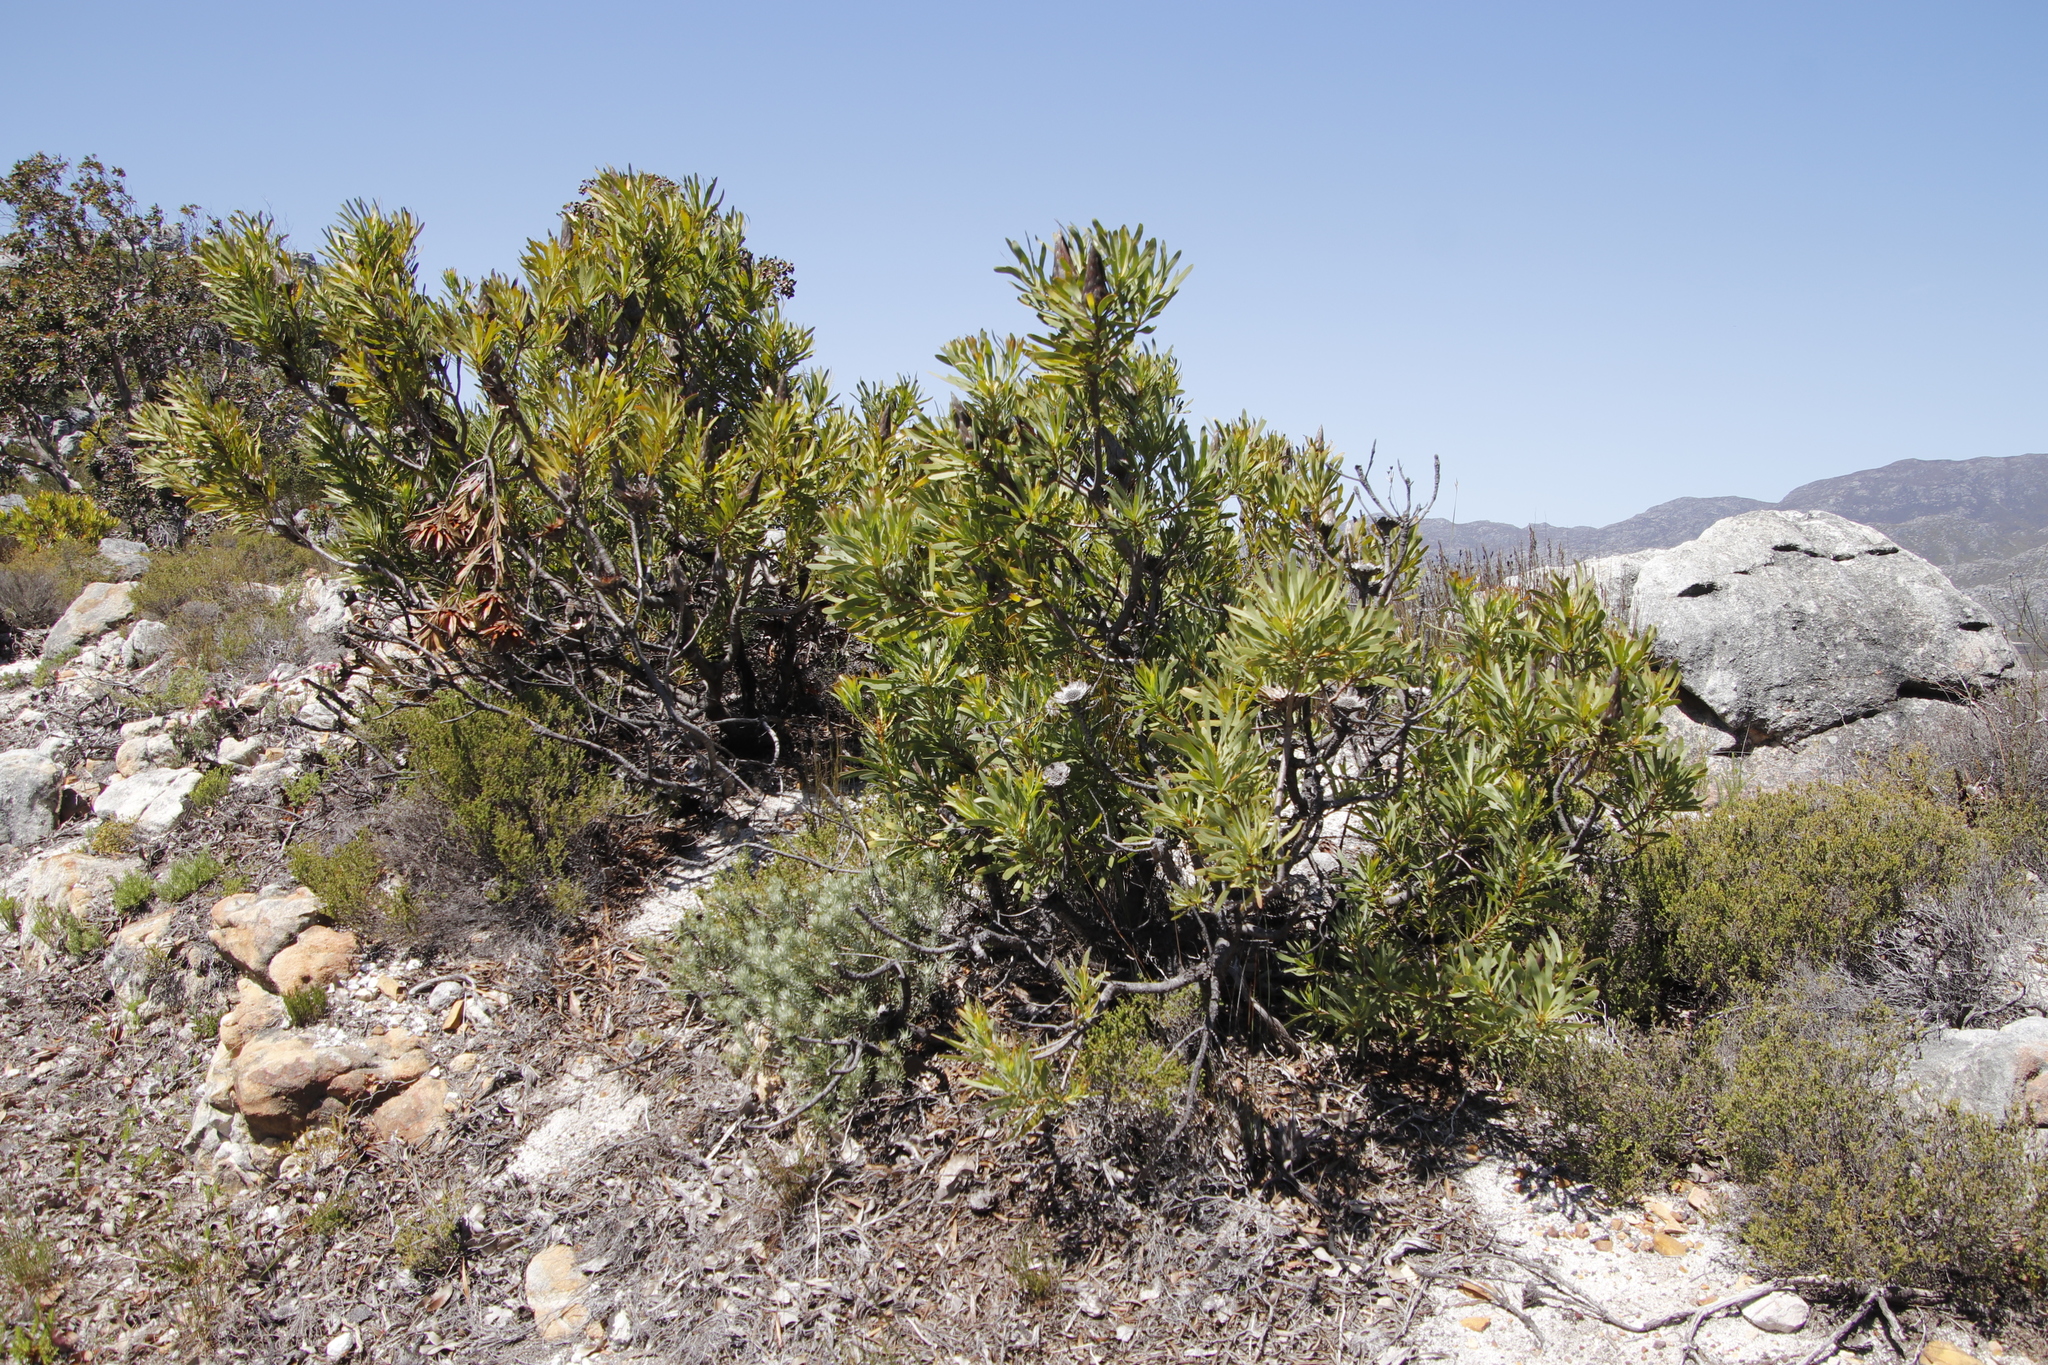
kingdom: Plantae
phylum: Tracheophyta
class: Magnoliopsida
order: Proteales
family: Proteaceae
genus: Protea
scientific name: Protea repens
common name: Sugarbush
